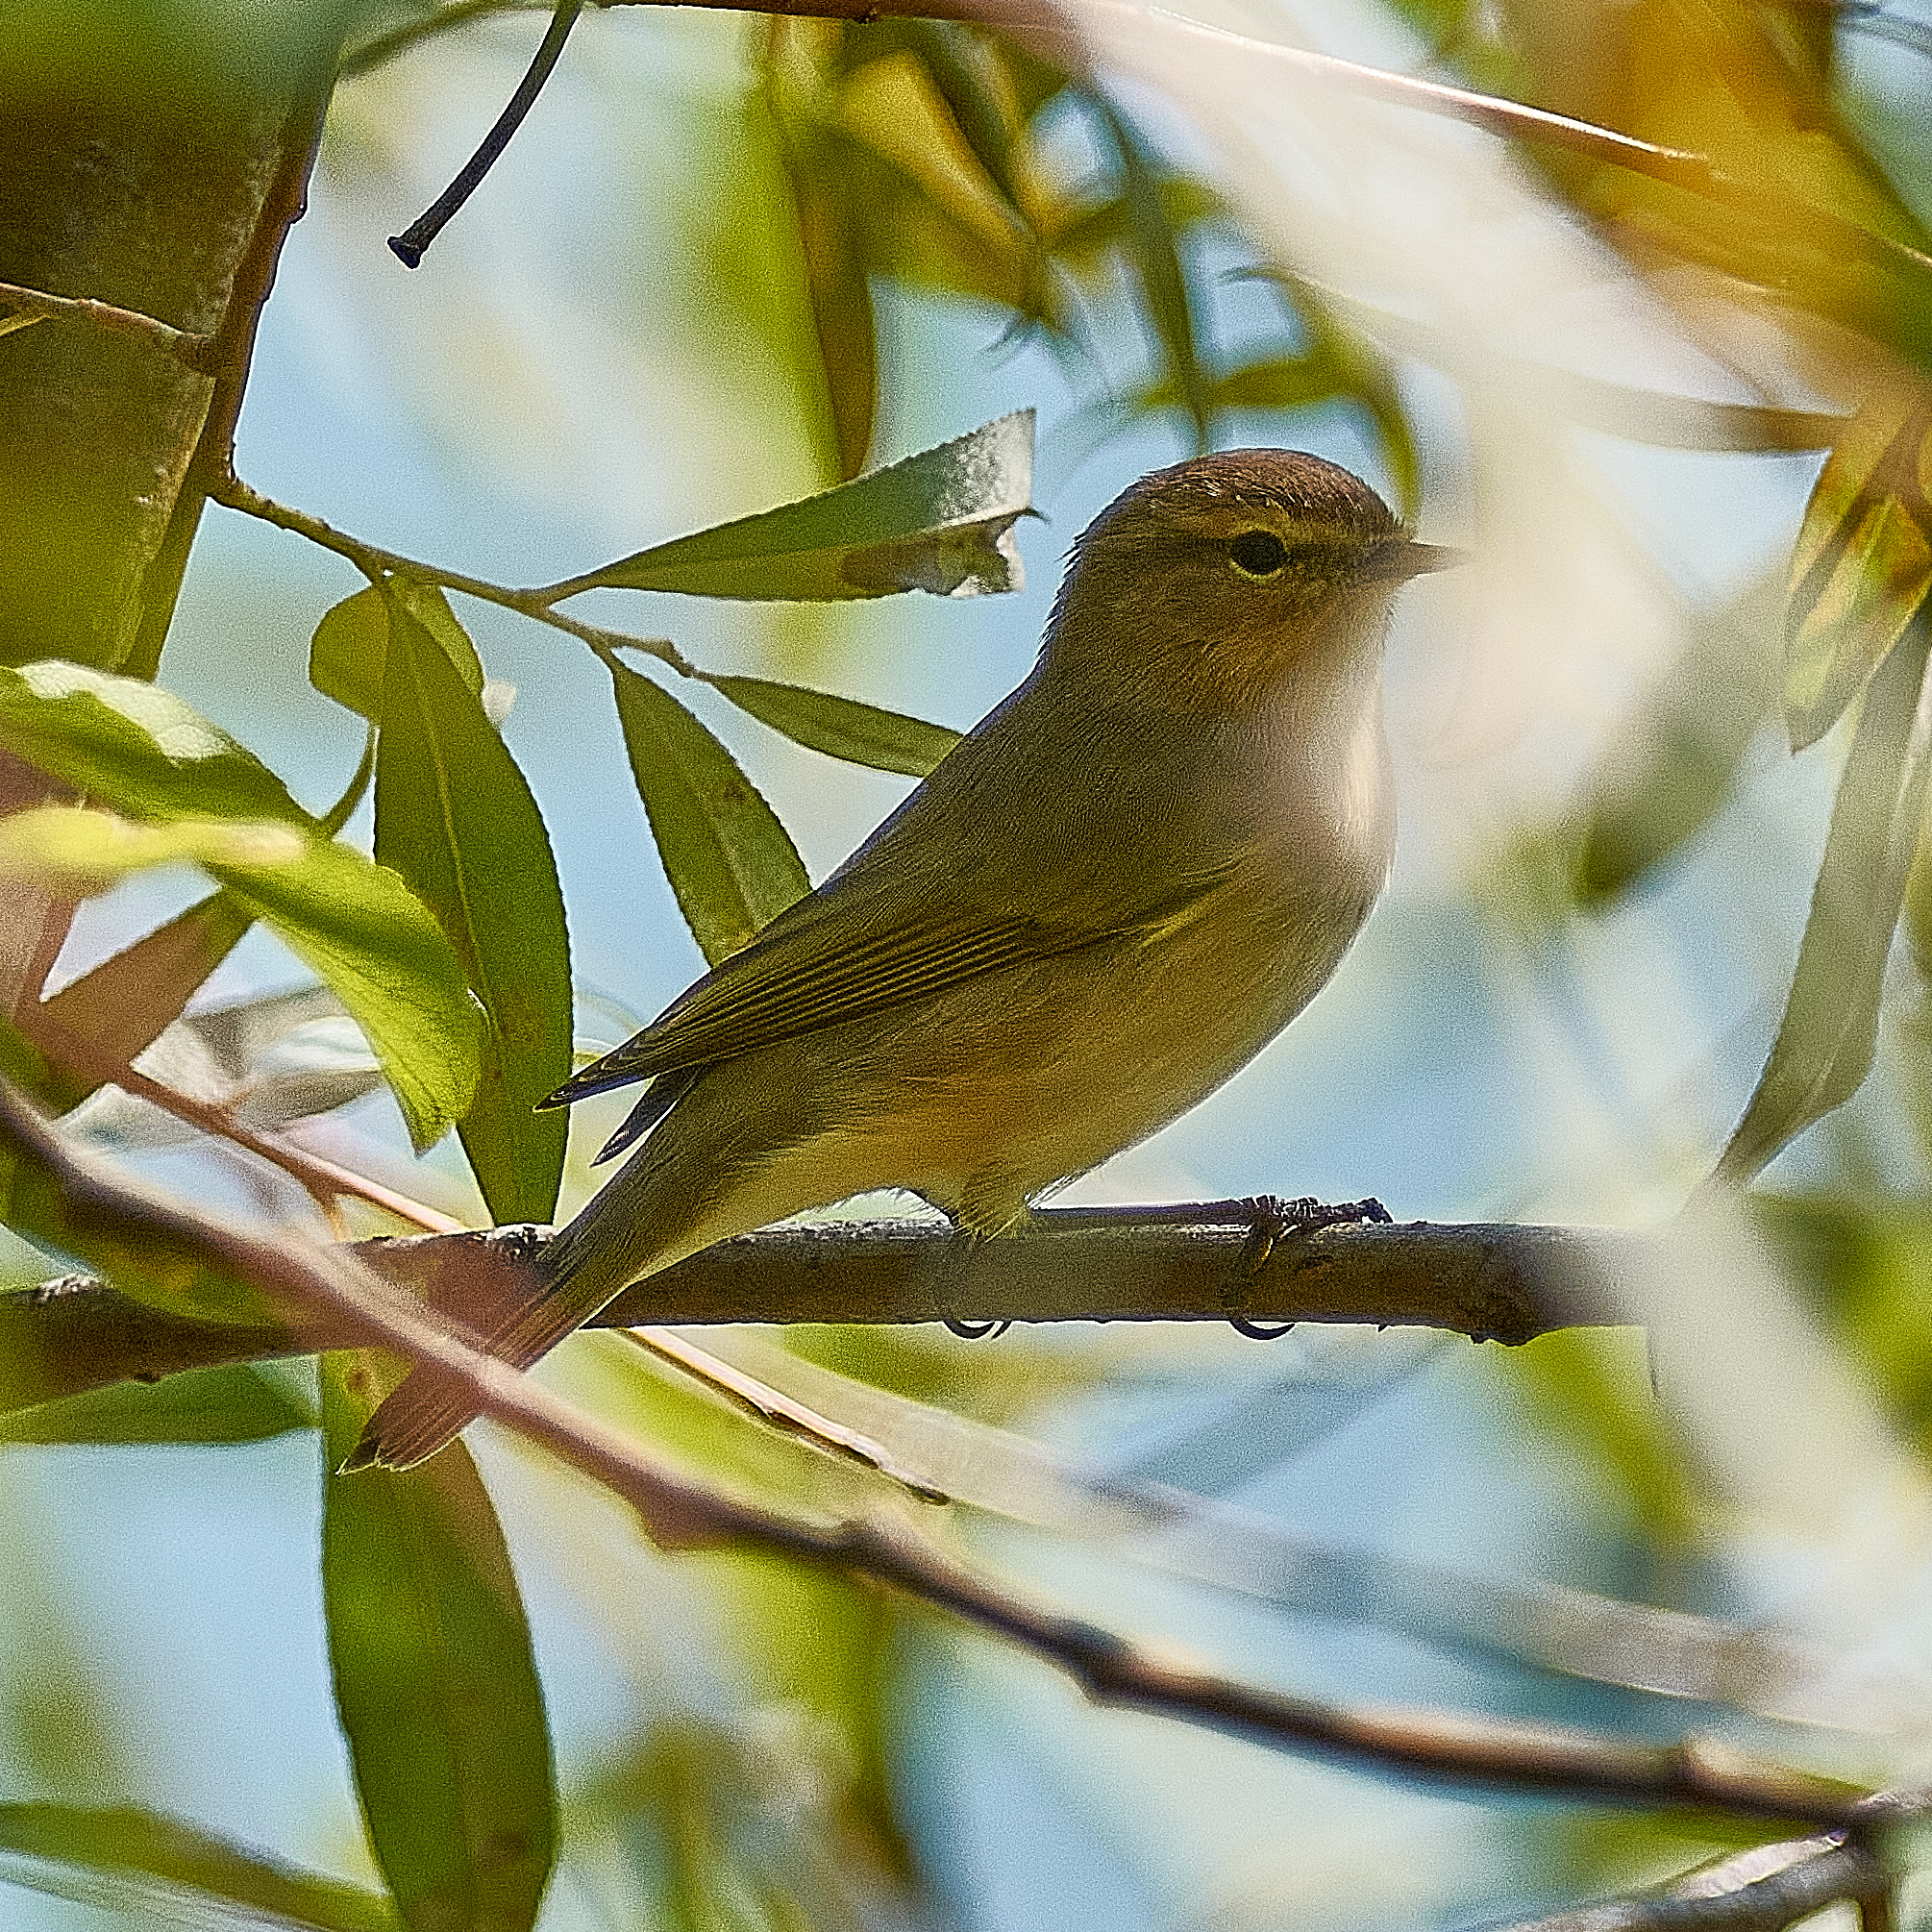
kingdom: Animalia
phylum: Chordata
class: Aves
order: Passeriformes
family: Phylloscopidae
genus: Phylloscopus
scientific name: Phylloscopus collybita
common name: Common chiffchaff
